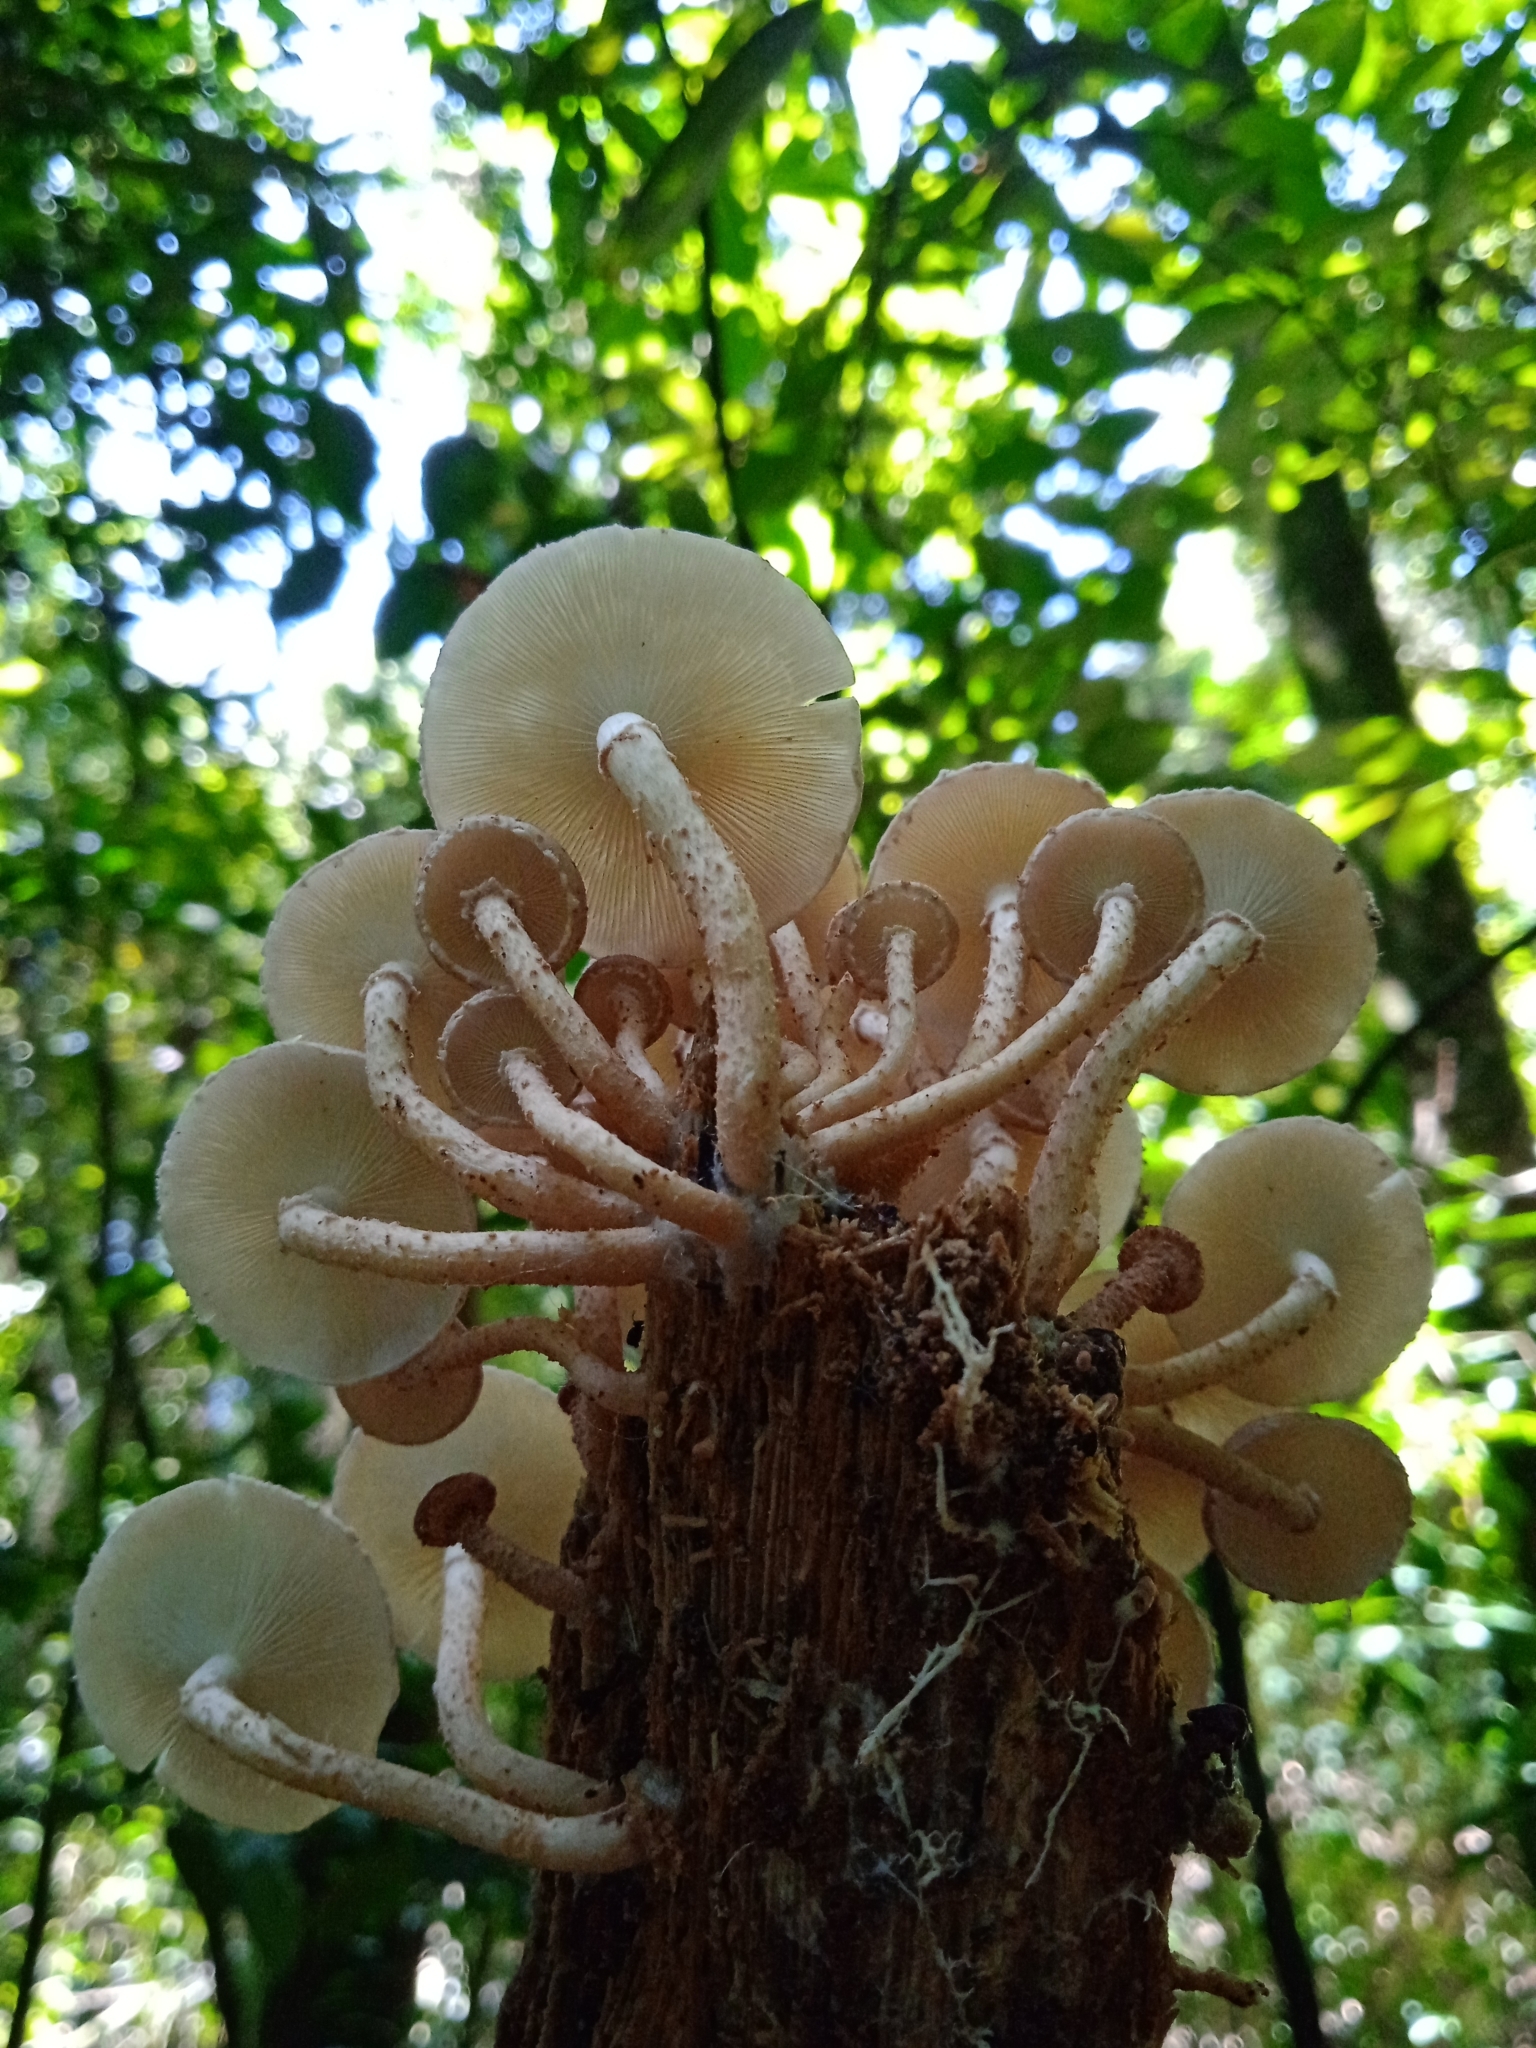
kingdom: Fungi
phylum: Basidiomycota
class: Agaricomycetes
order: Agaricales
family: Agaricaceae
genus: Ripartitella
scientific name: Ripartitella brasiliensis
